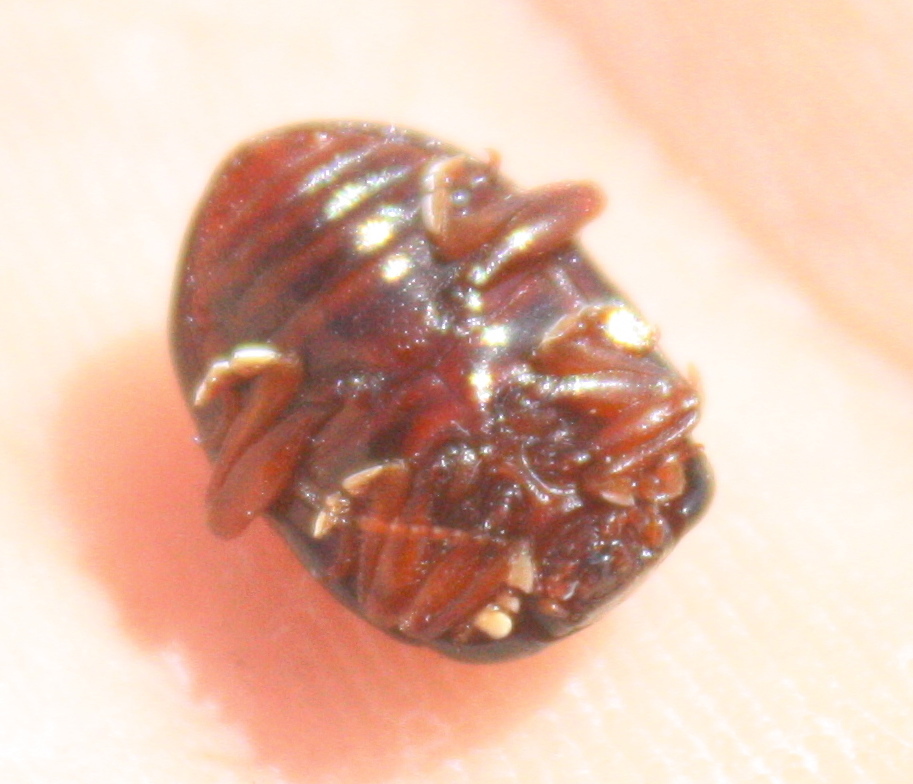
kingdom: Animalia
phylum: Arthropoda
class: Insecta
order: Coleoptera
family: Chrysomelidae
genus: Chrysolina
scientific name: Chrysolina bankii
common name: Leaf beetle
